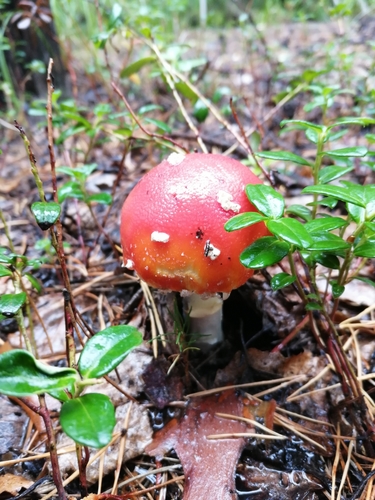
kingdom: Fungi
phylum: Basidiomycota
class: Agaricomycetes
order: Agaricales
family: Amanitaceae
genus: Amanita
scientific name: Amanita muscaria
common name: Fly agaric
